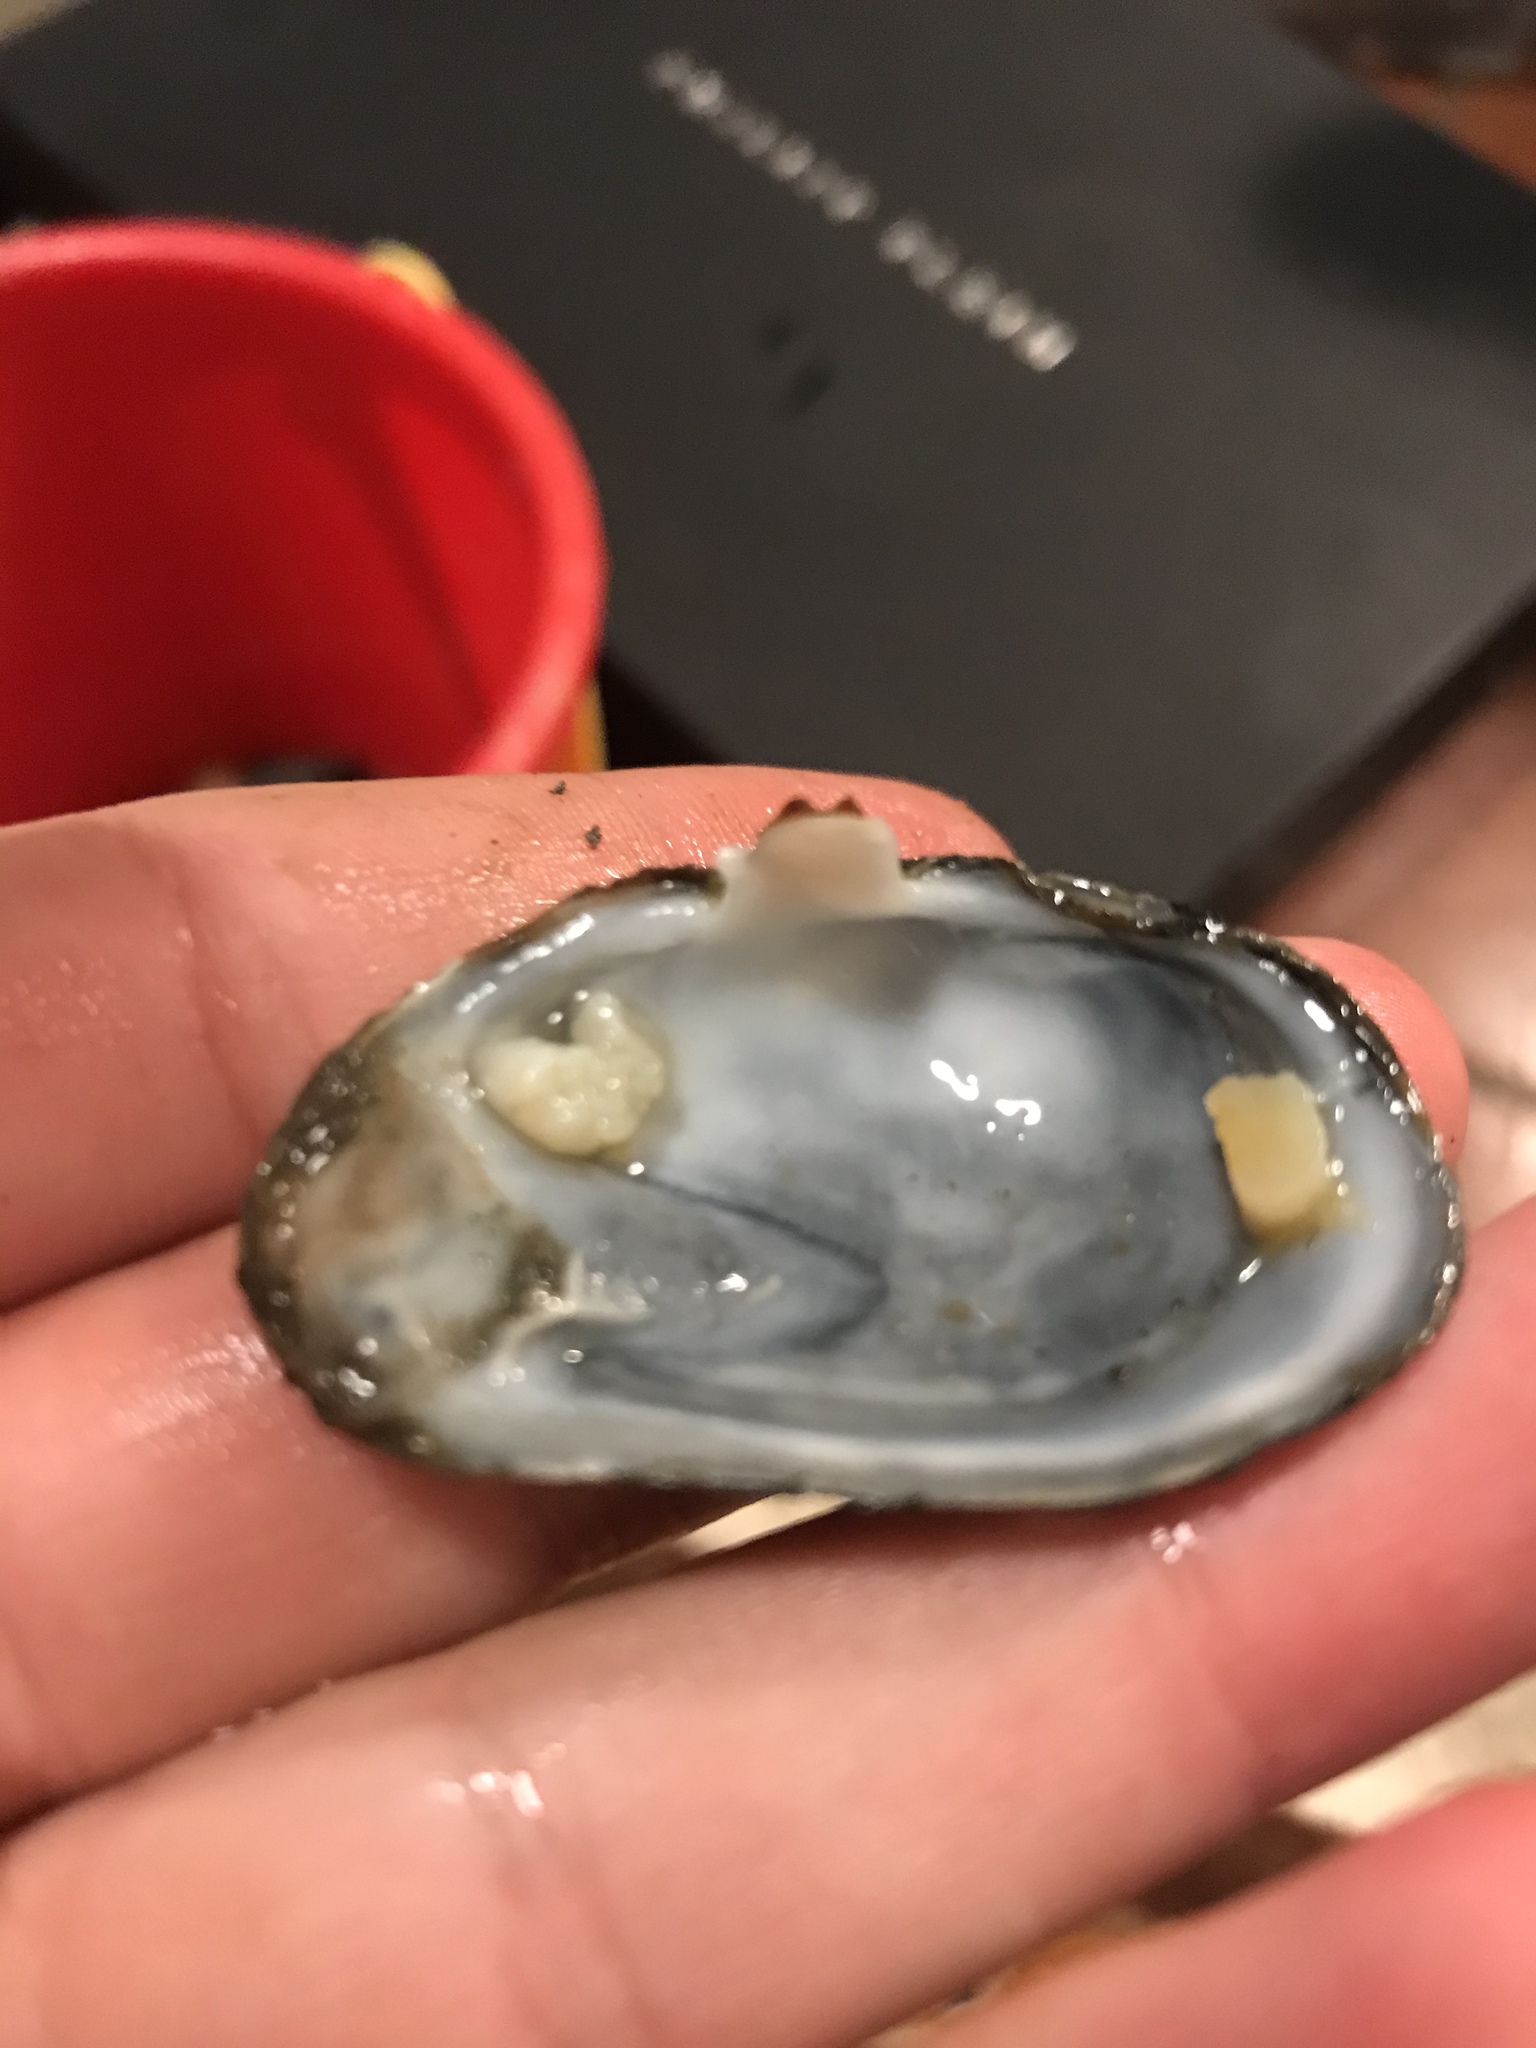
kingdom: Animalia
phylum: Mollusca
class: Bivalvia
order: Myida
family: Myidae
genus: Mya
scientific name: Mya arenaria
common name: Soft-shelled clam
